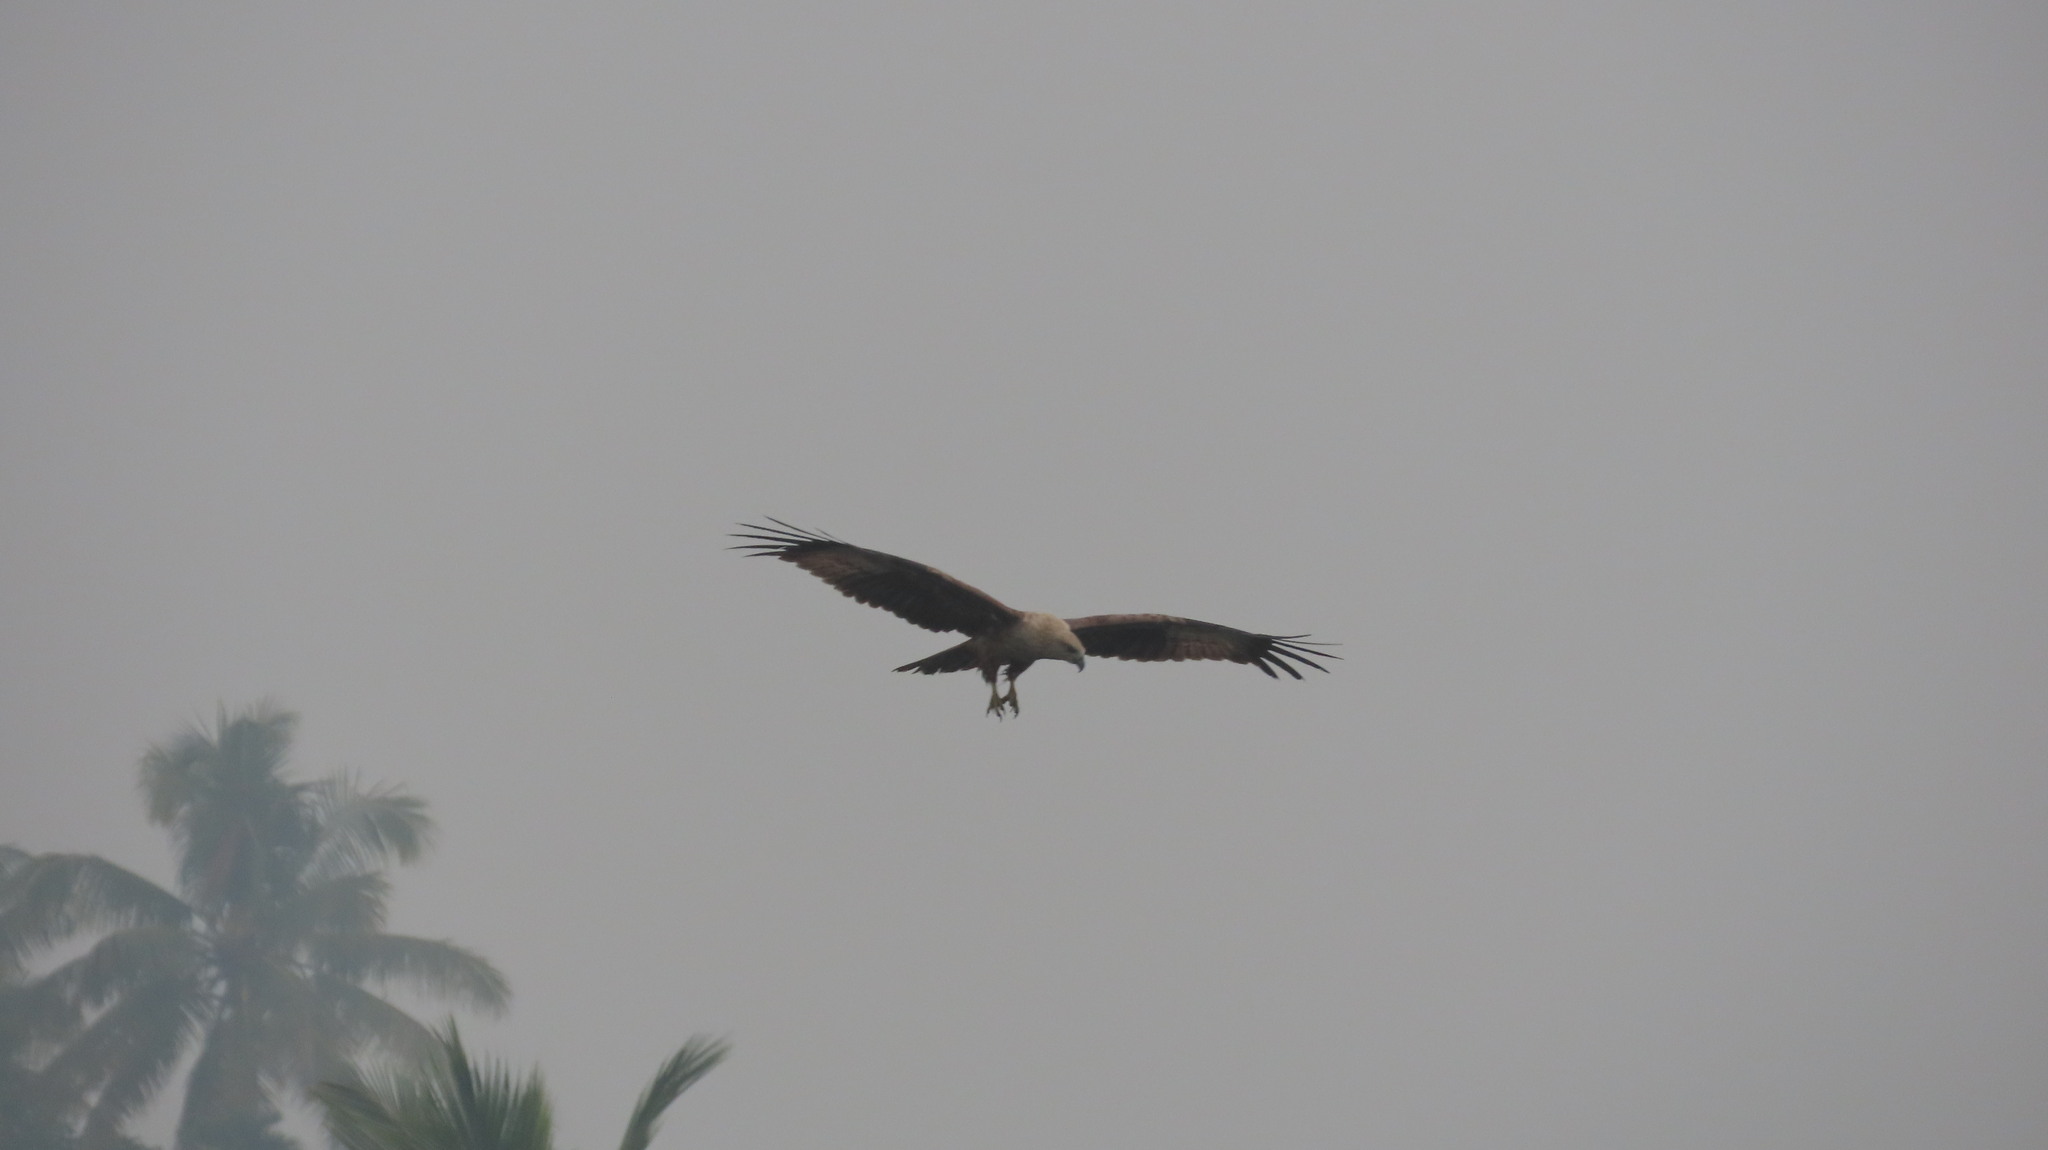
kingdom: Animalia
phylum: Chordata
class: Aves
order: Accipitriformes
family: Accipitridae
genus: Haliastur
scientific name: Haliastur indus
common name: Brahminy kite
